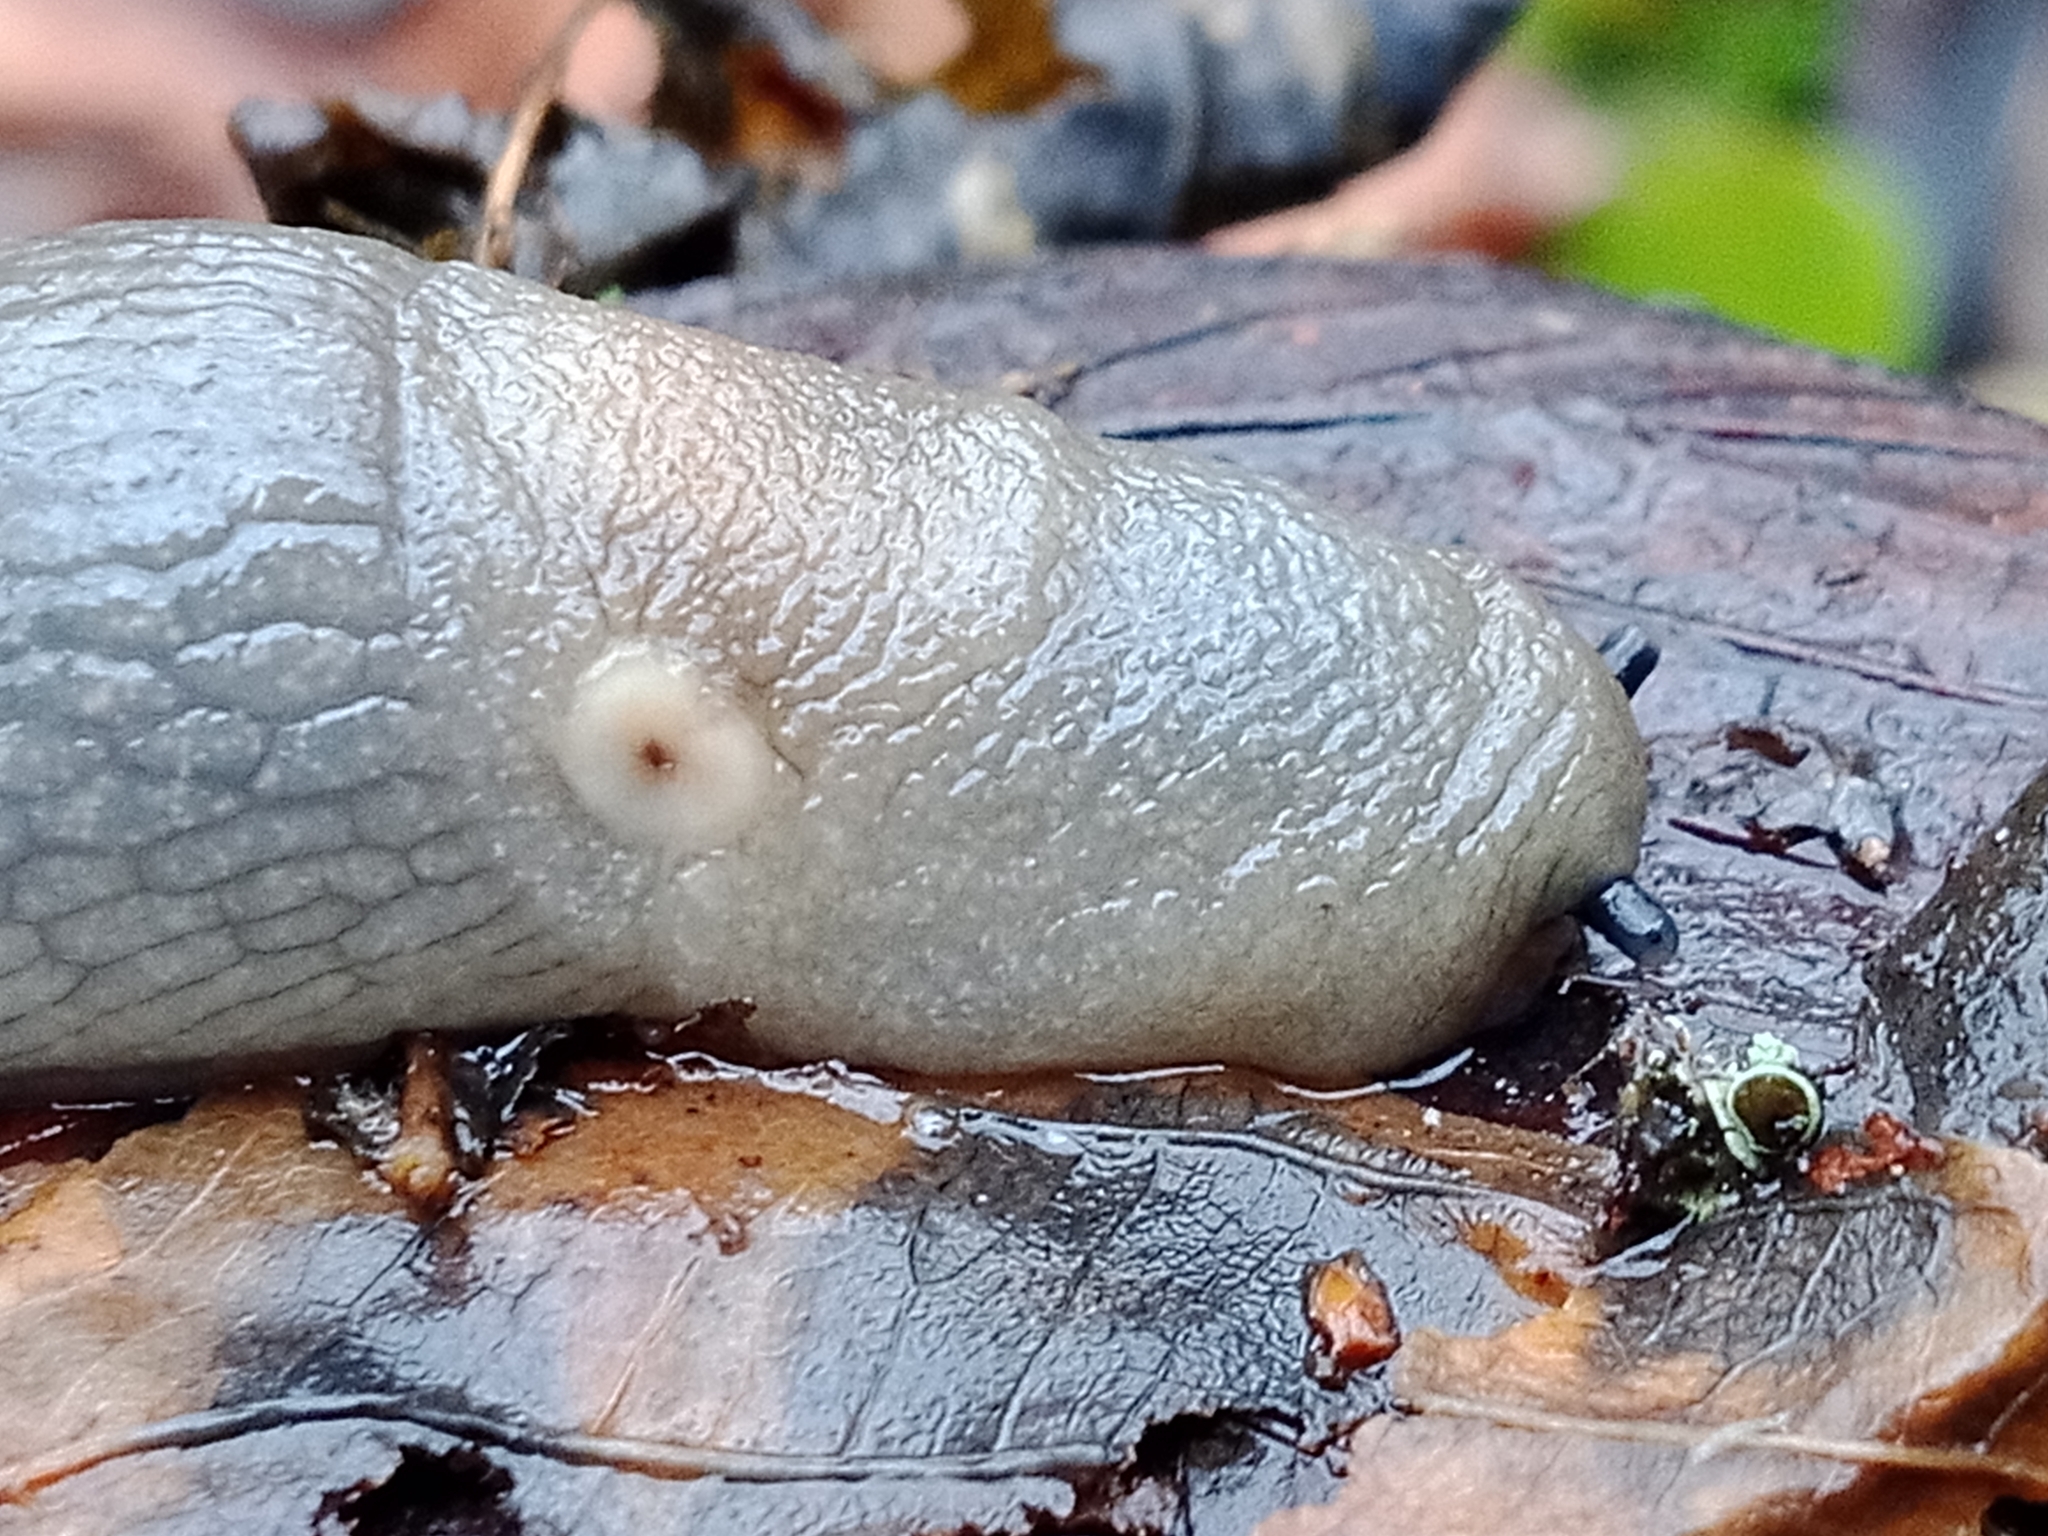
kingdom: Animalia
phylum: Mollusca
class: Gastropoda
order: Stylommatophora
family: Agriolimacidae
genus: Krynickillus
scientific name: Krynickillus melanocephalus
